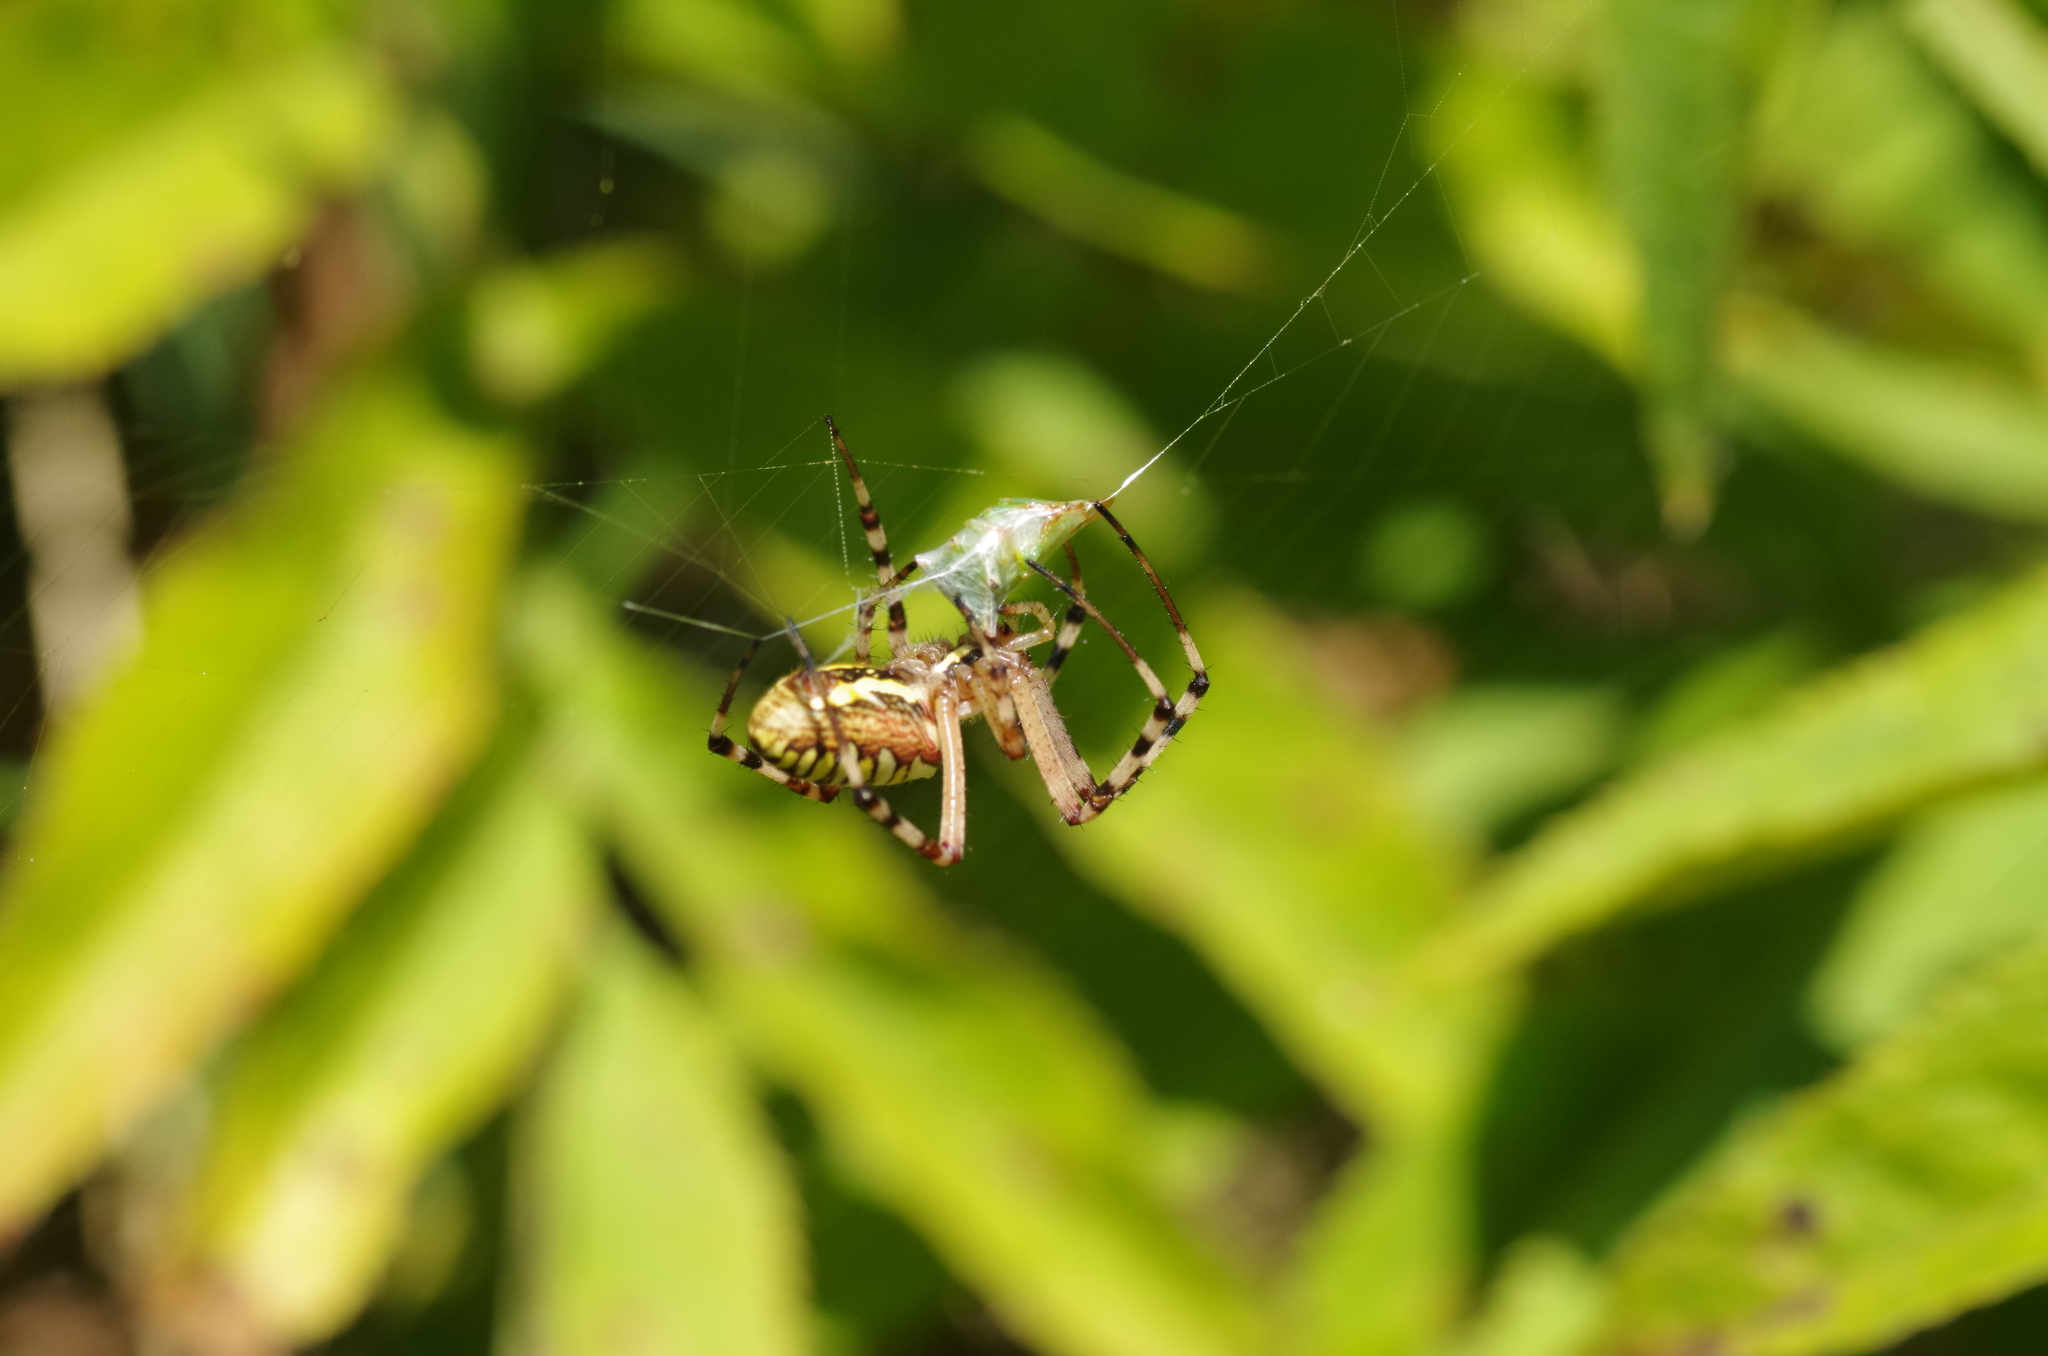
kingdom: Animalia
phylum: Arthropoda
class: Arachnida
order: Araneae
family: Araneidae
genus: Argiope
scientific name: Argiope bruennichi
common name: Wasp spider
